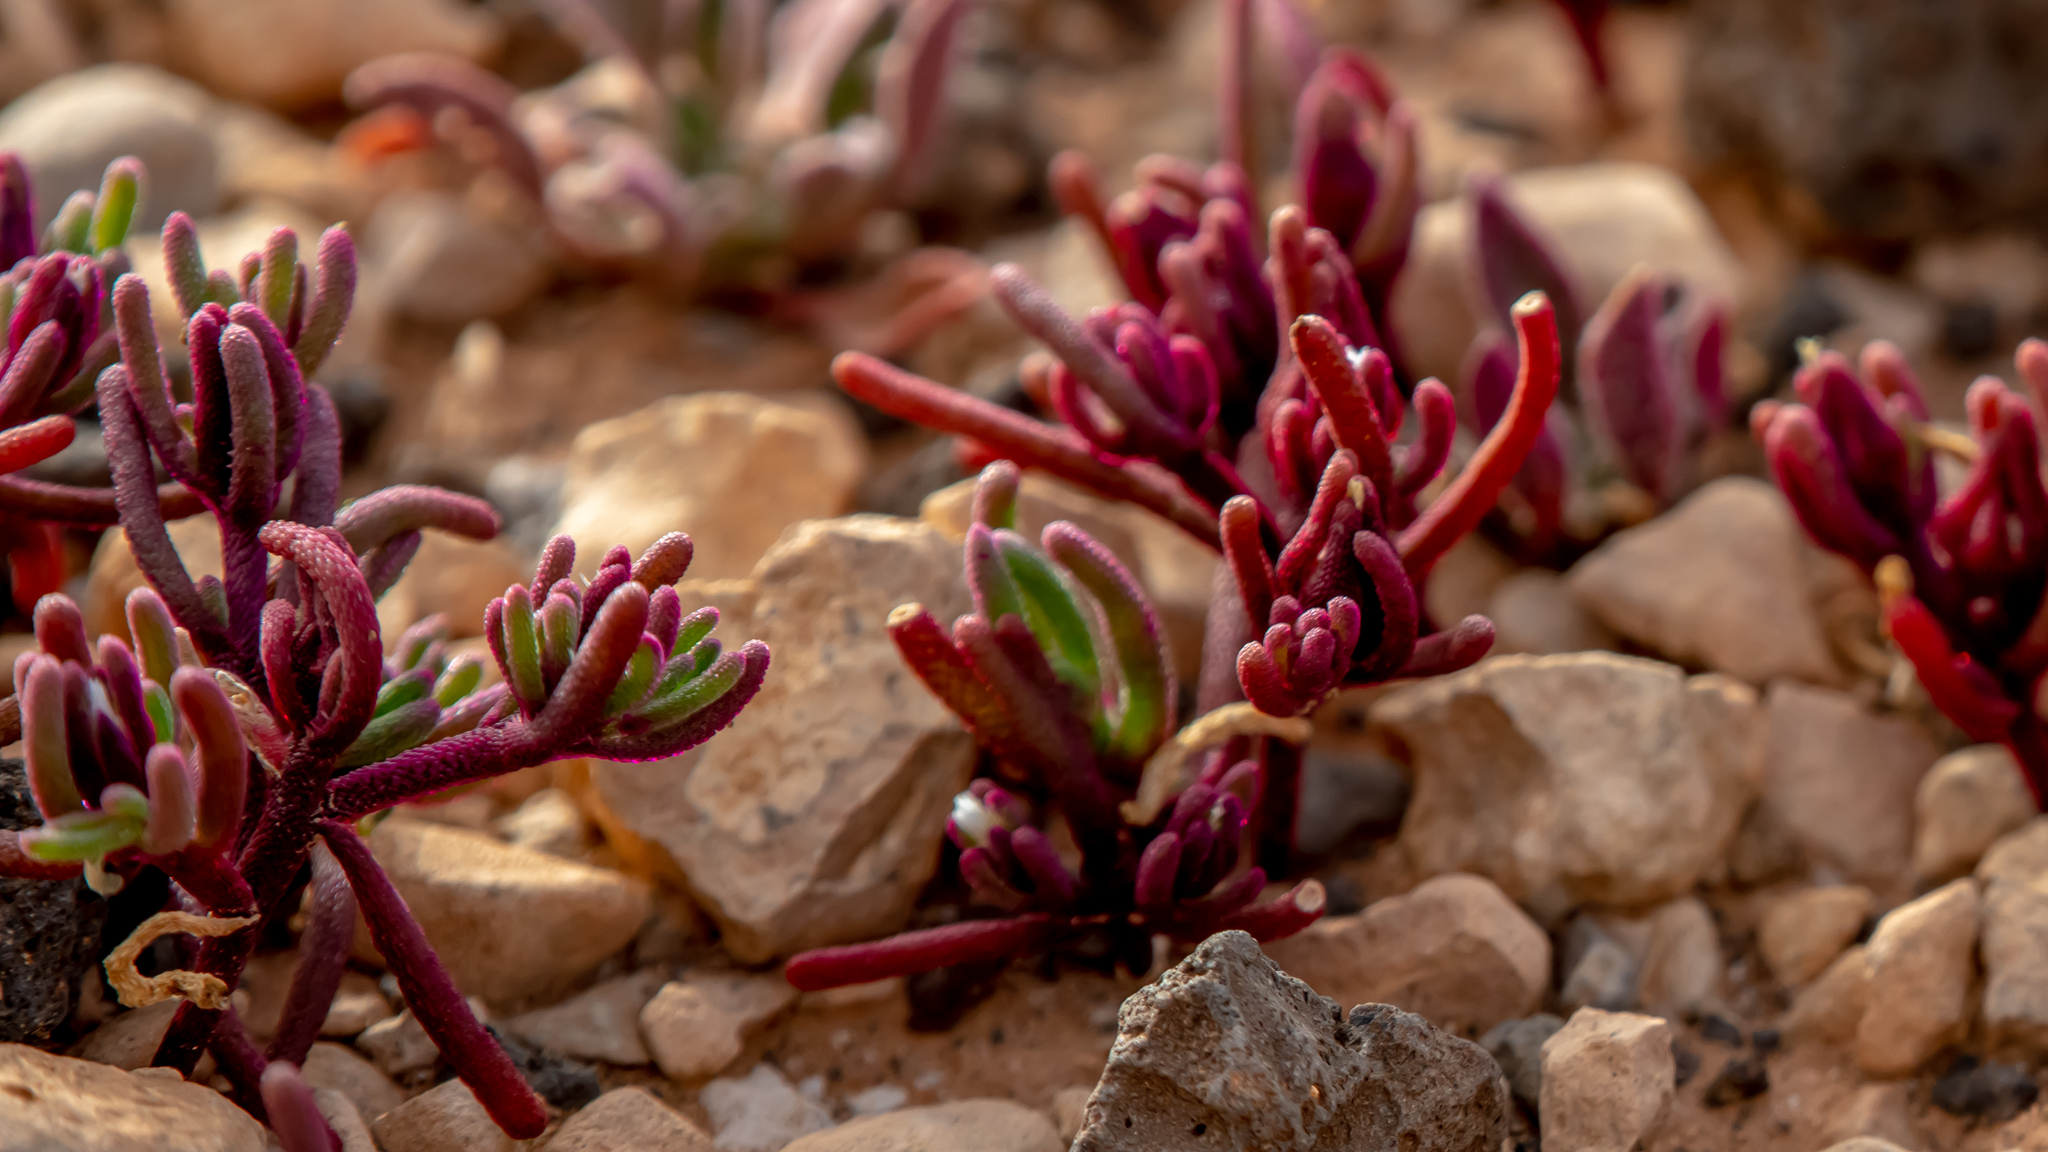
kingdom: Plantae
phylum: Tracheophyta
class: Magnoliopsida
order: Caryophyllales
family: Aizoaceae
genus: Mesembryanthemum
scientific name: Mesembryanthemum nodiflorum
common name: Slenderleaf iceplant
